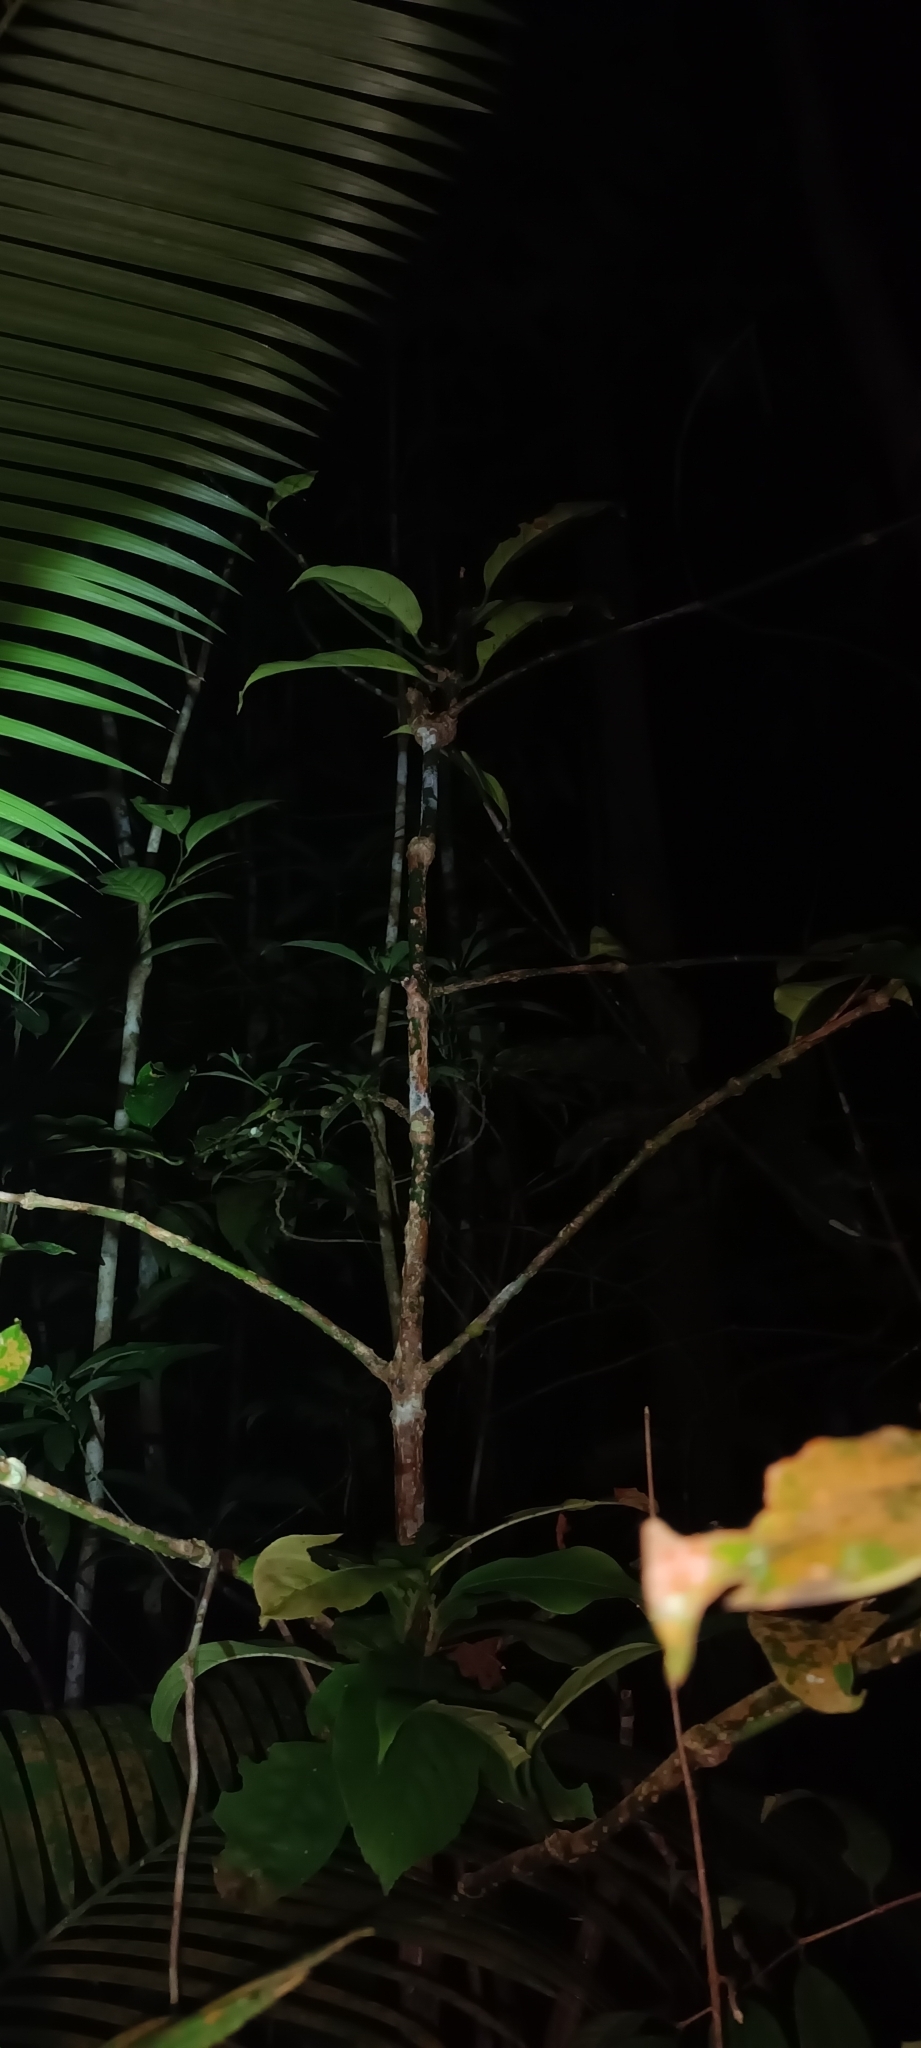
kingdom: Plantae
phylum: Tracheophyta
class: Magnoliopsida
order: Gentianales
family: Gentianaceae
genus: Utania
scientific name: Utania volubilis
